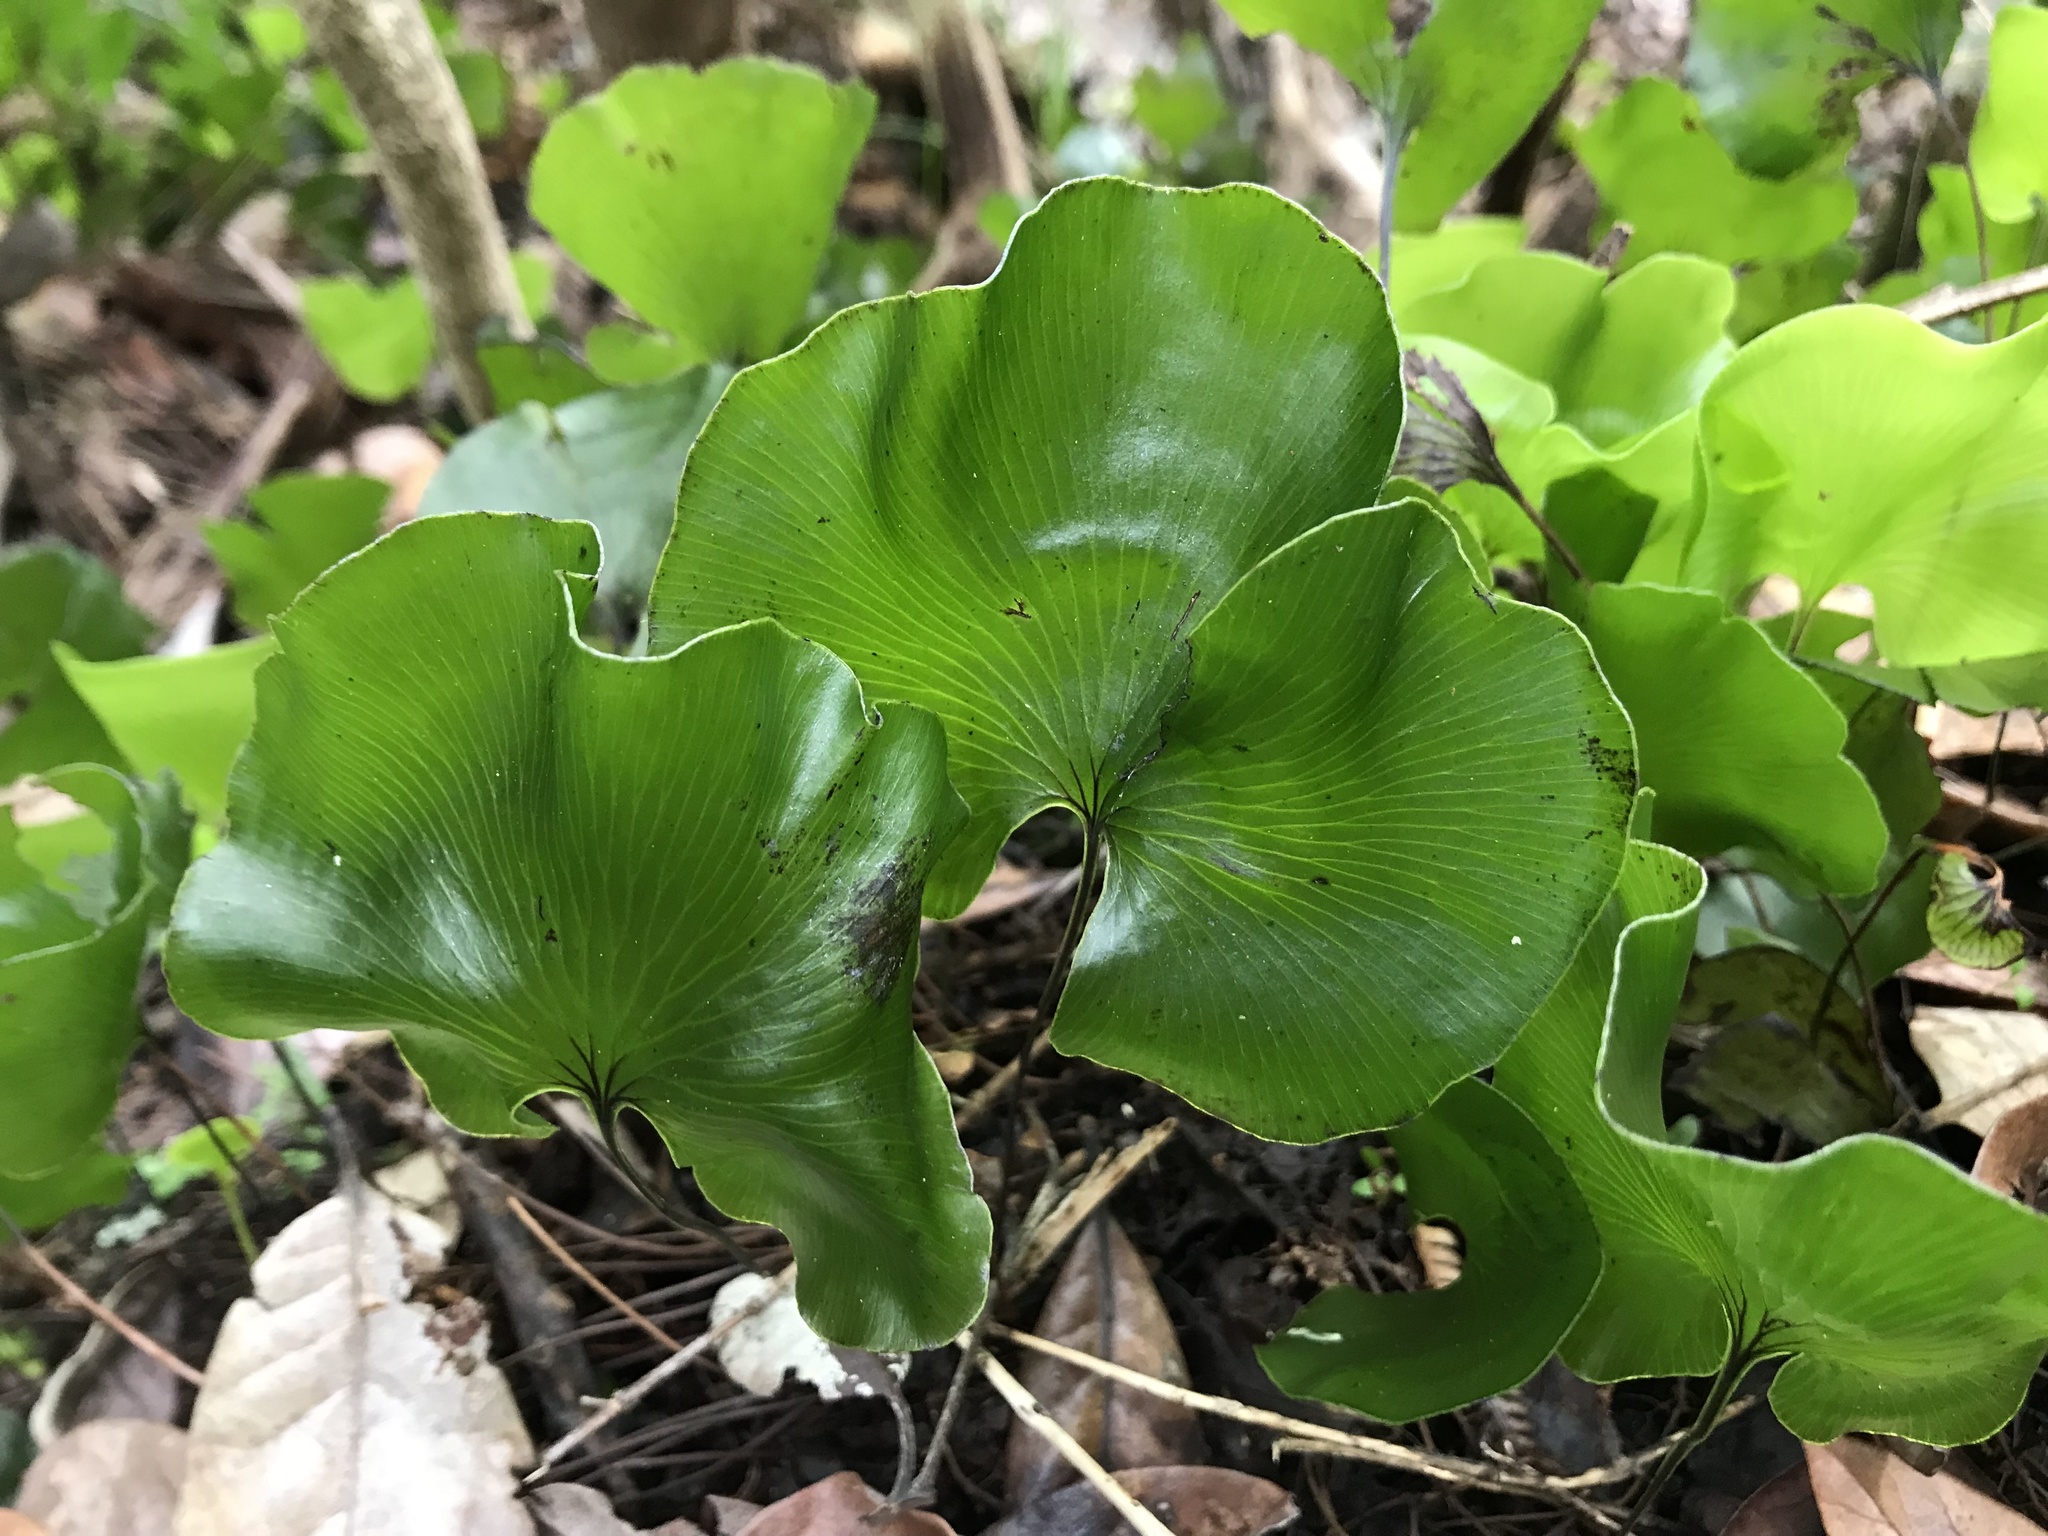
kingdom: Plantae
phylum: Tracheophyta
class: Polypodiopsida
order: Hymenophyllales
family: Hymenophyllaceae
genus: Hymenophyllum
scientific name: Hymenophyllum nephrophyllum
